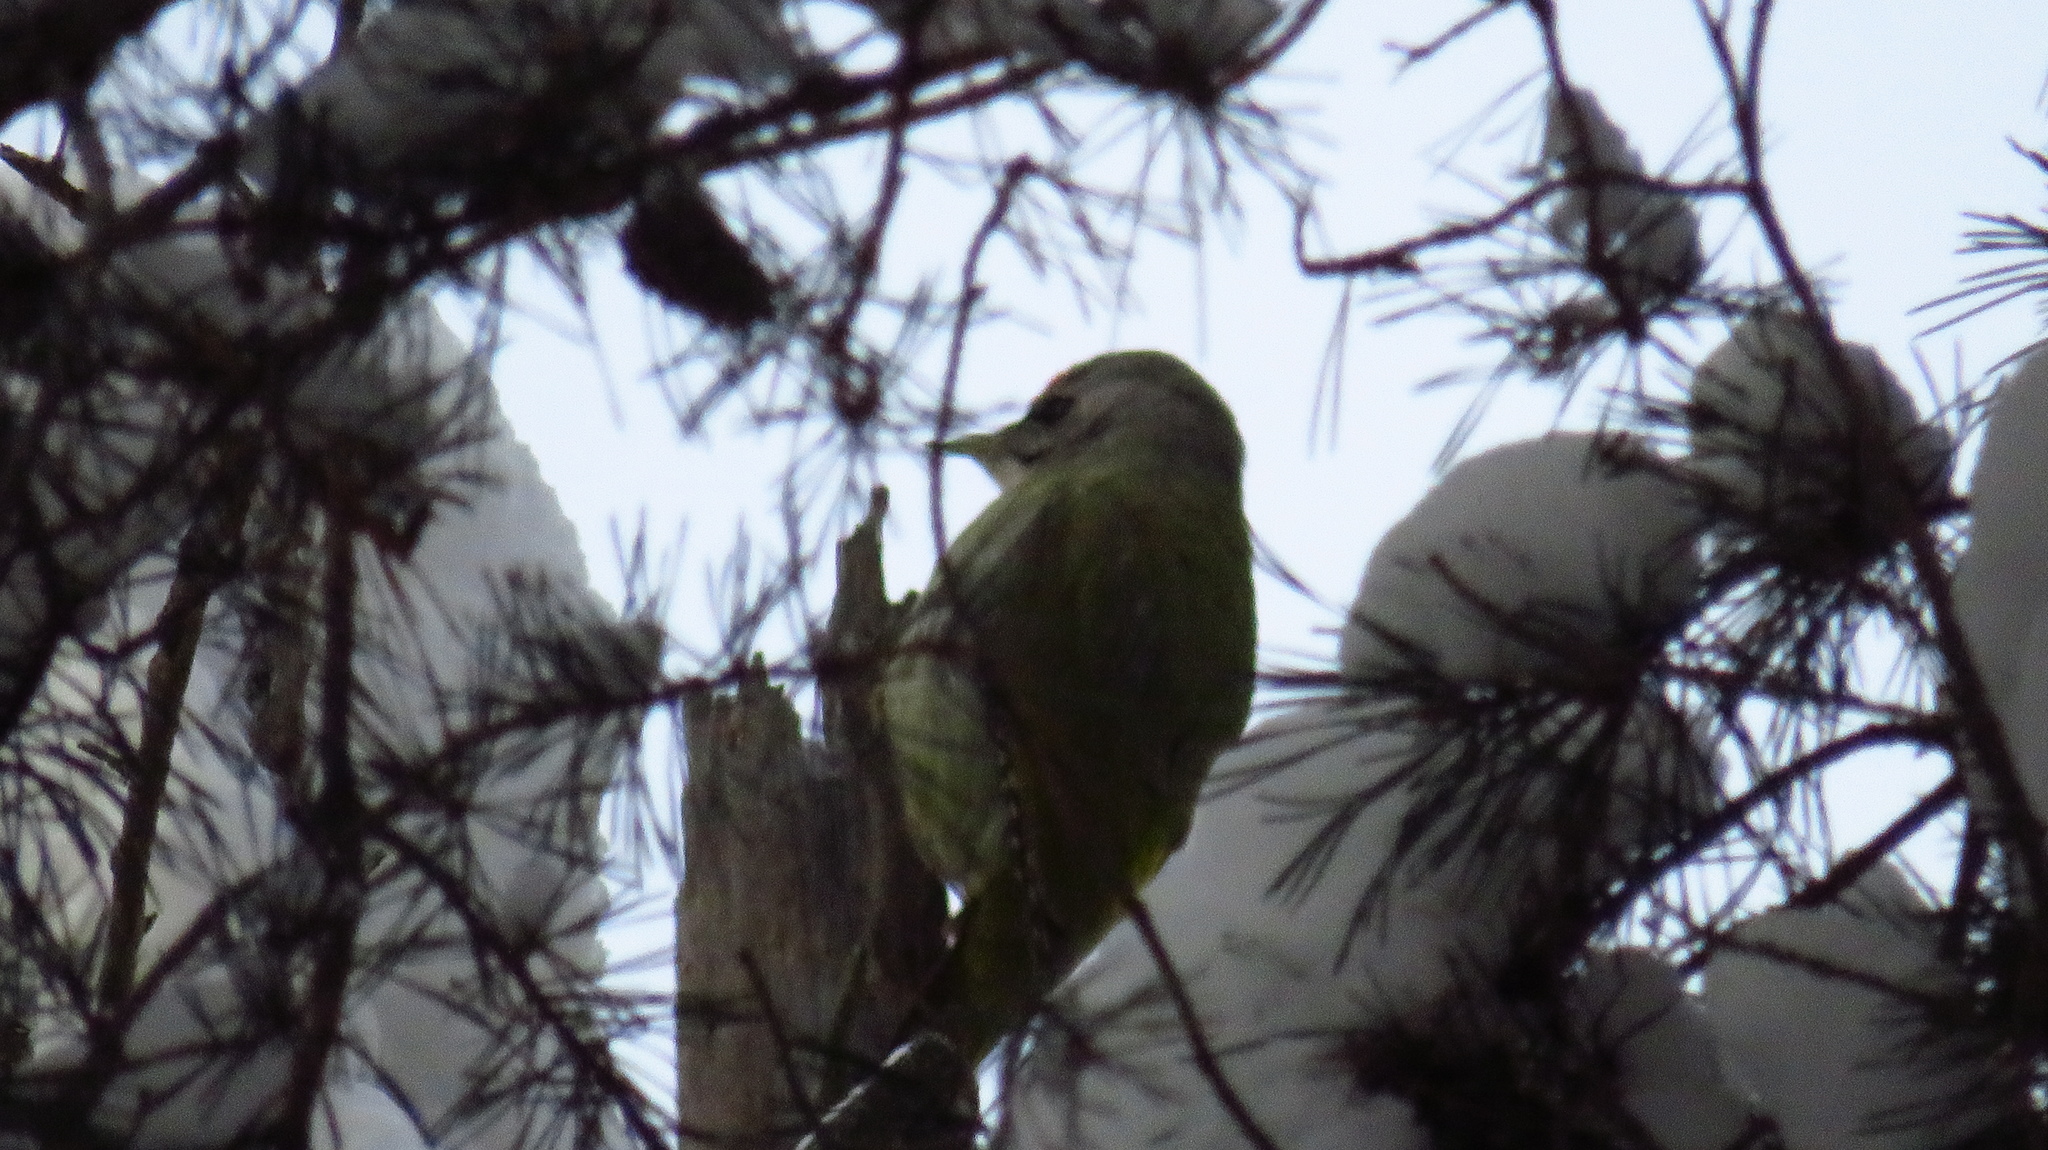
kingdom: Animalia
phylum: Chordata
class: Aves
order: Piciformes
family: Picidae
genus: Picus
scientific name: Picus canus
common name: Grey-headed woodpecker
